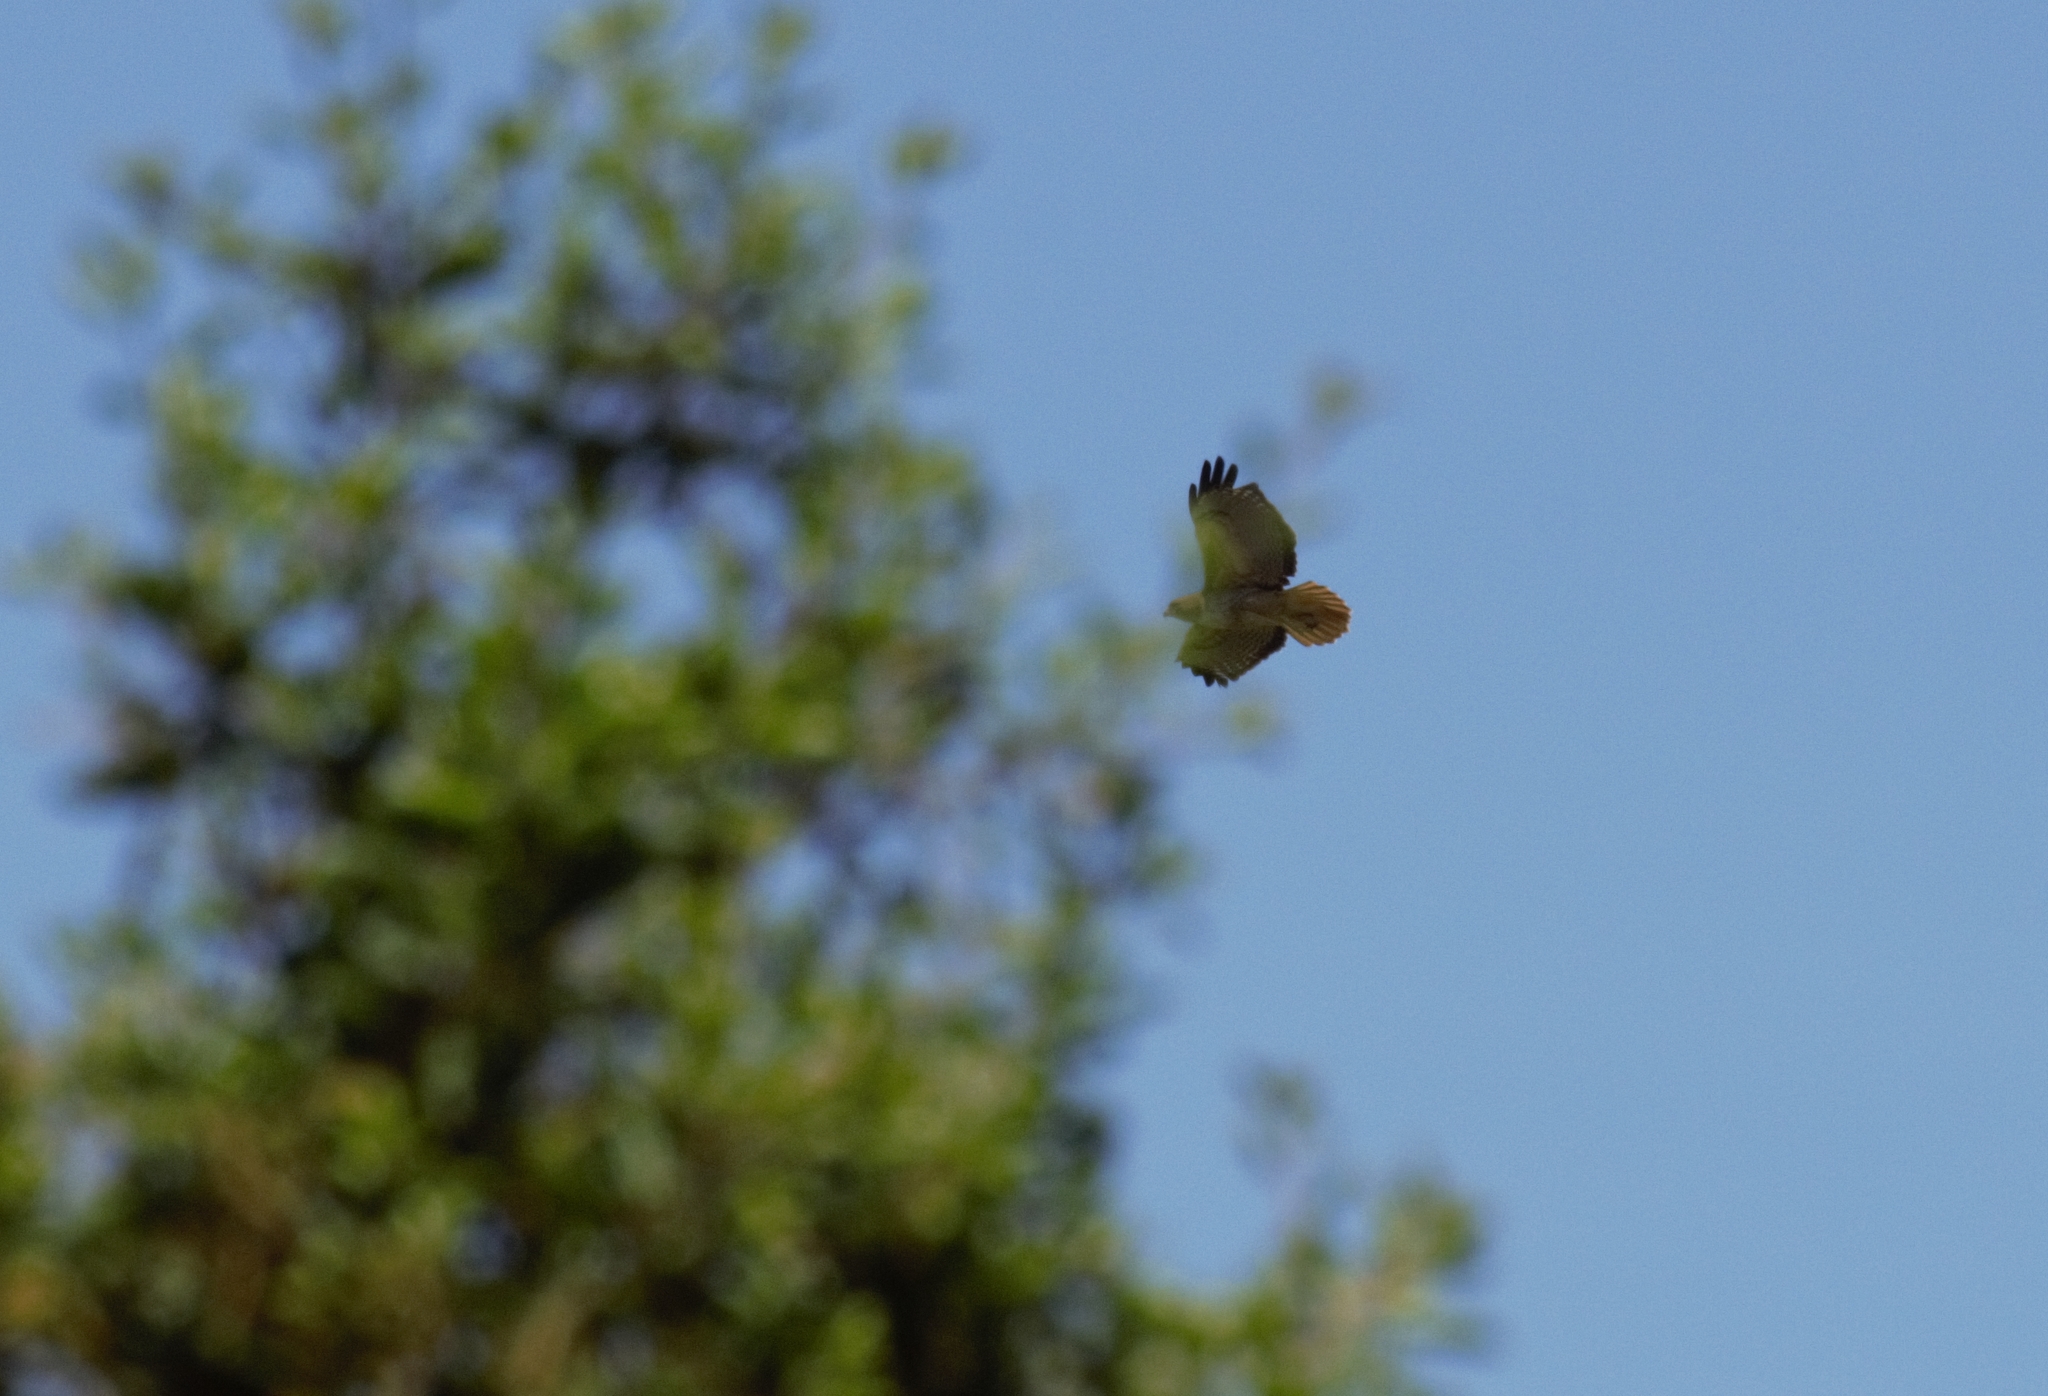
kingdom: Animalia
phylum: Chordata
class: Aves
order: Accipitriformes
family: Accipitridae
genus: Buteo
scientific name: Buteo jamaicensis
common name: Red-tailed hawk
